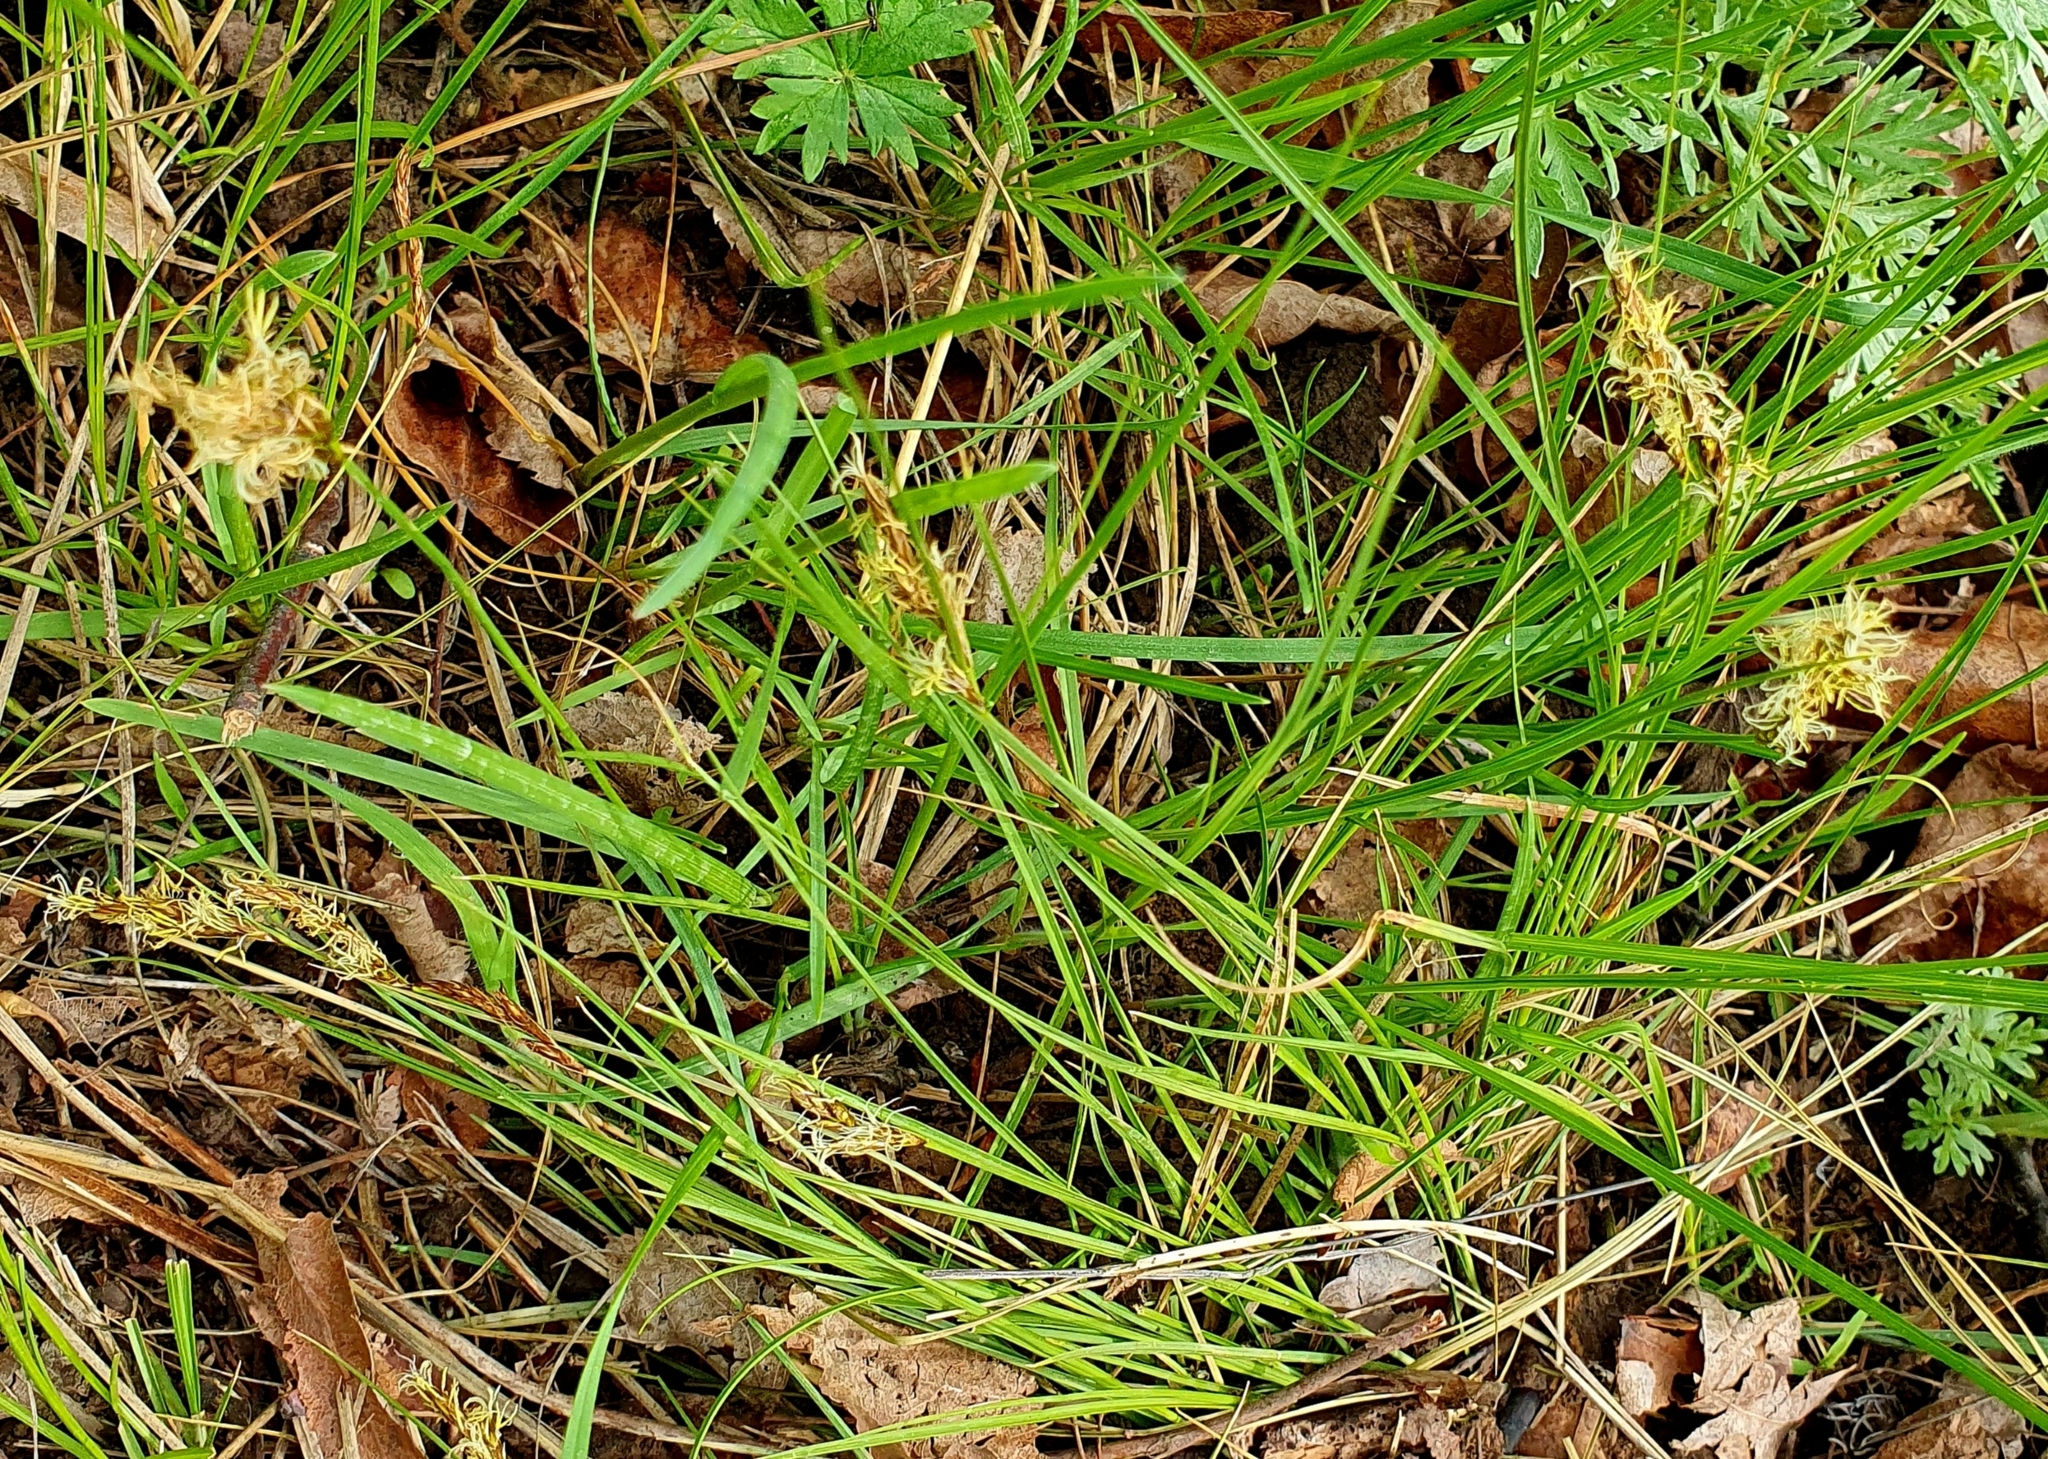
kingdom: Plantae
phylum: Tracheophyta
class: Liliopsida
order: Poales
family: Cyperaceae
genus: Carex
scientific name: Carex praecox
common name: Early sedge
